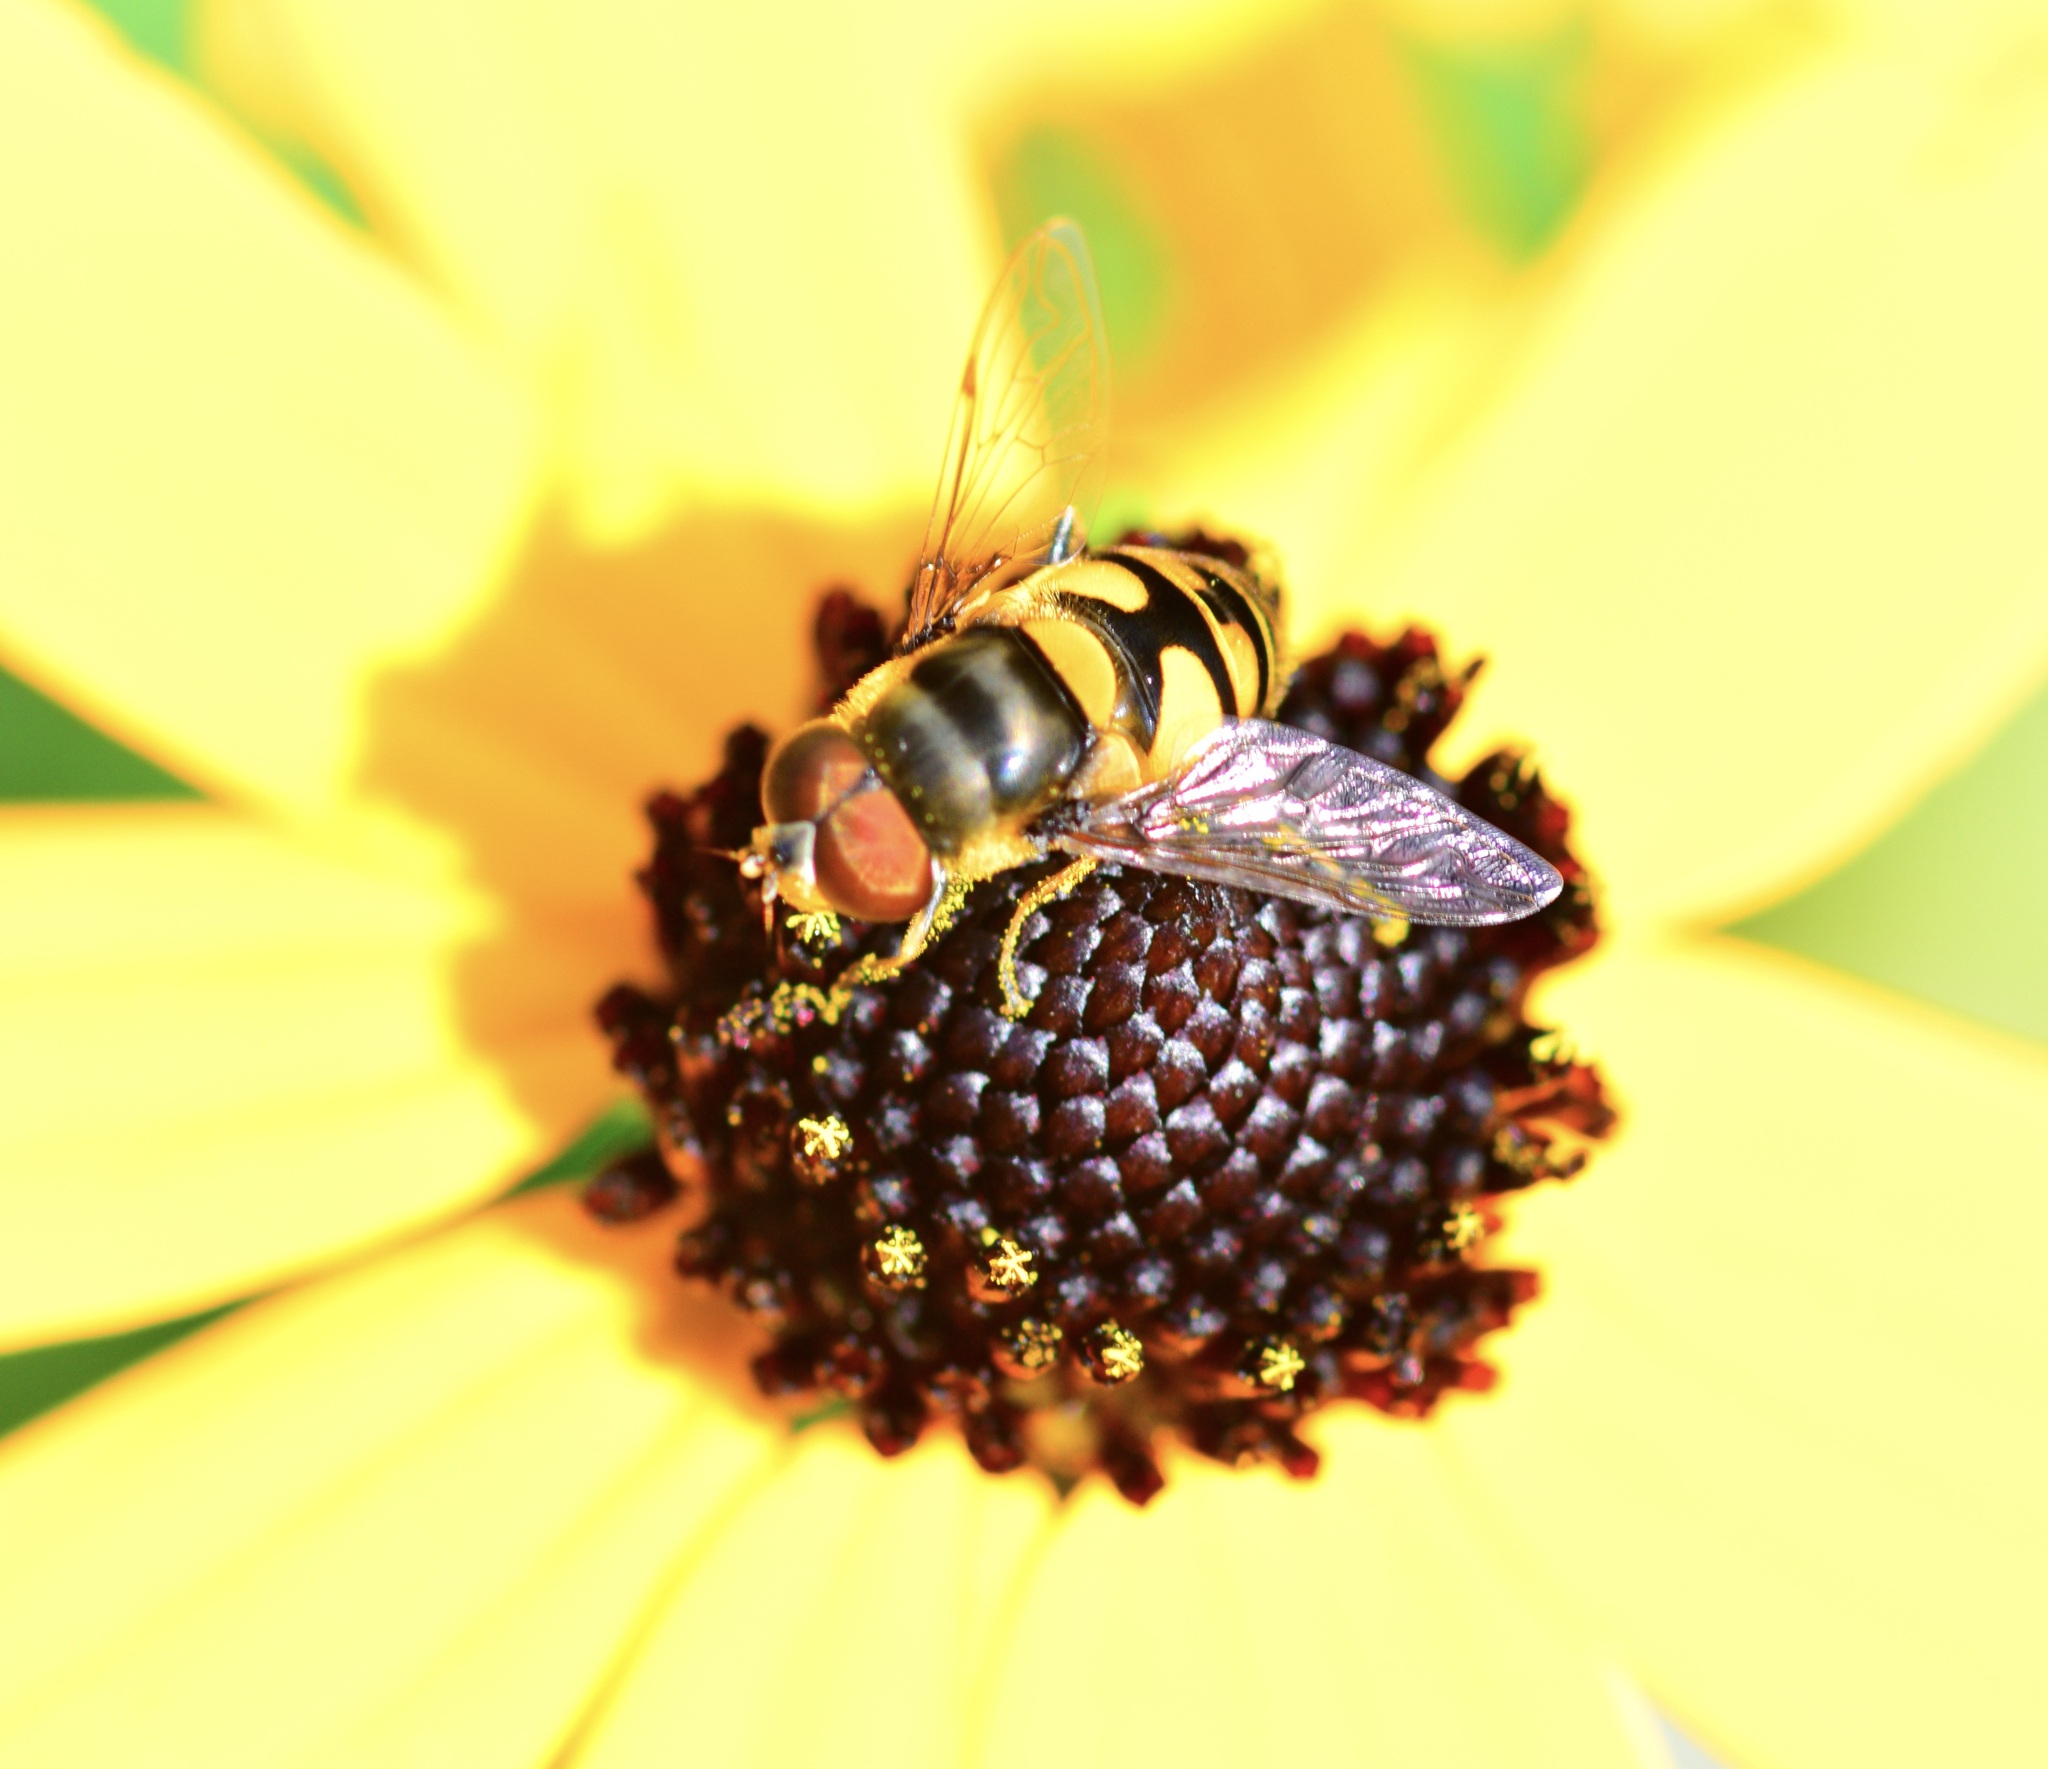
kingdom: Animalia
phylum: Arthropoda
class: Insecta
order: Diptera
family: Syrphidae
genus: Eristalis
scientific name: Eristalis transversa
